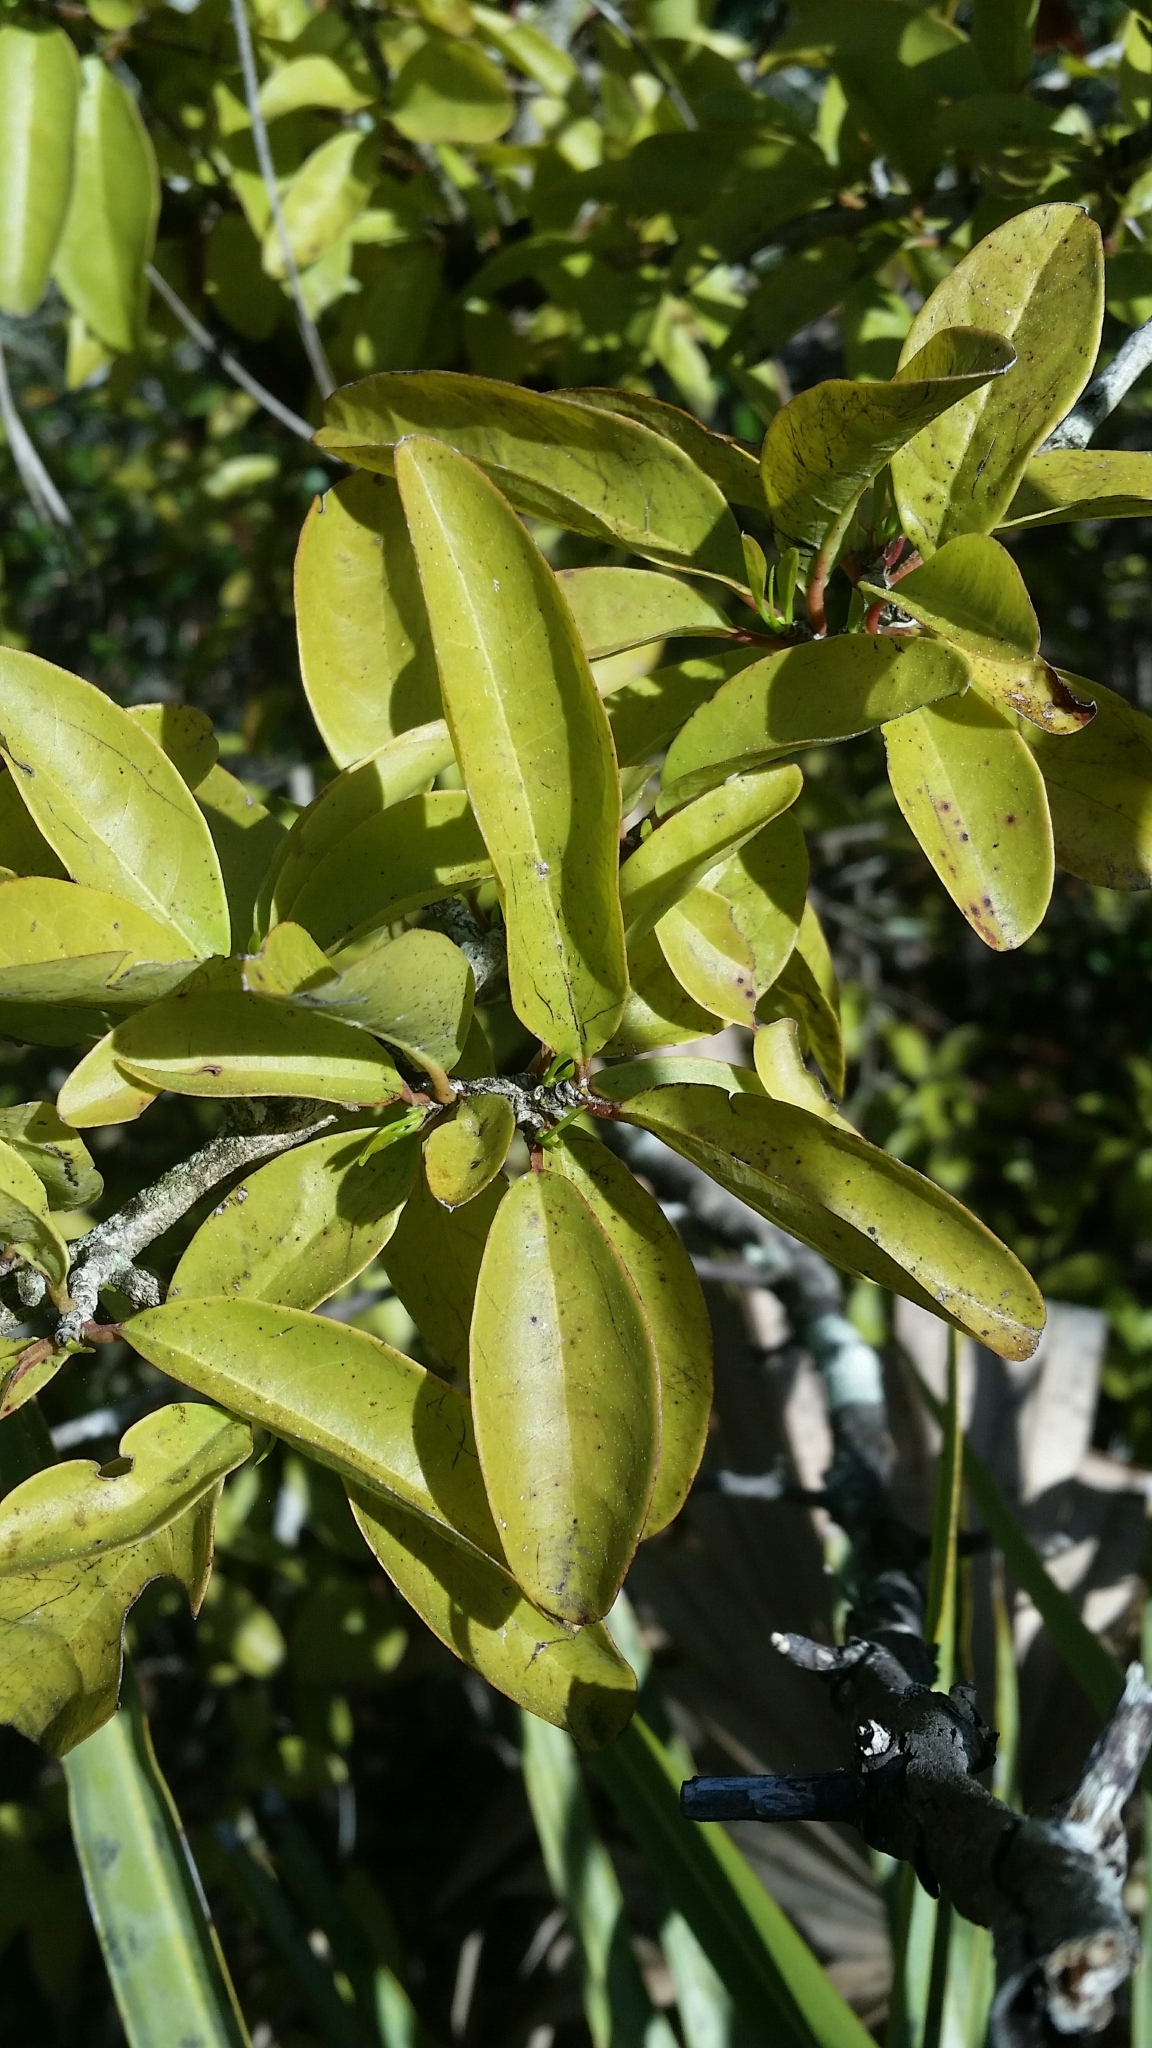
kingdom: Plantae
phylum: Tracheophyta
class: Magnoliopsida
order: Santalales
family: Ximeniaceae
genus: Ximenia
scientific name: Ximenia americana
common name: Tallowwood
